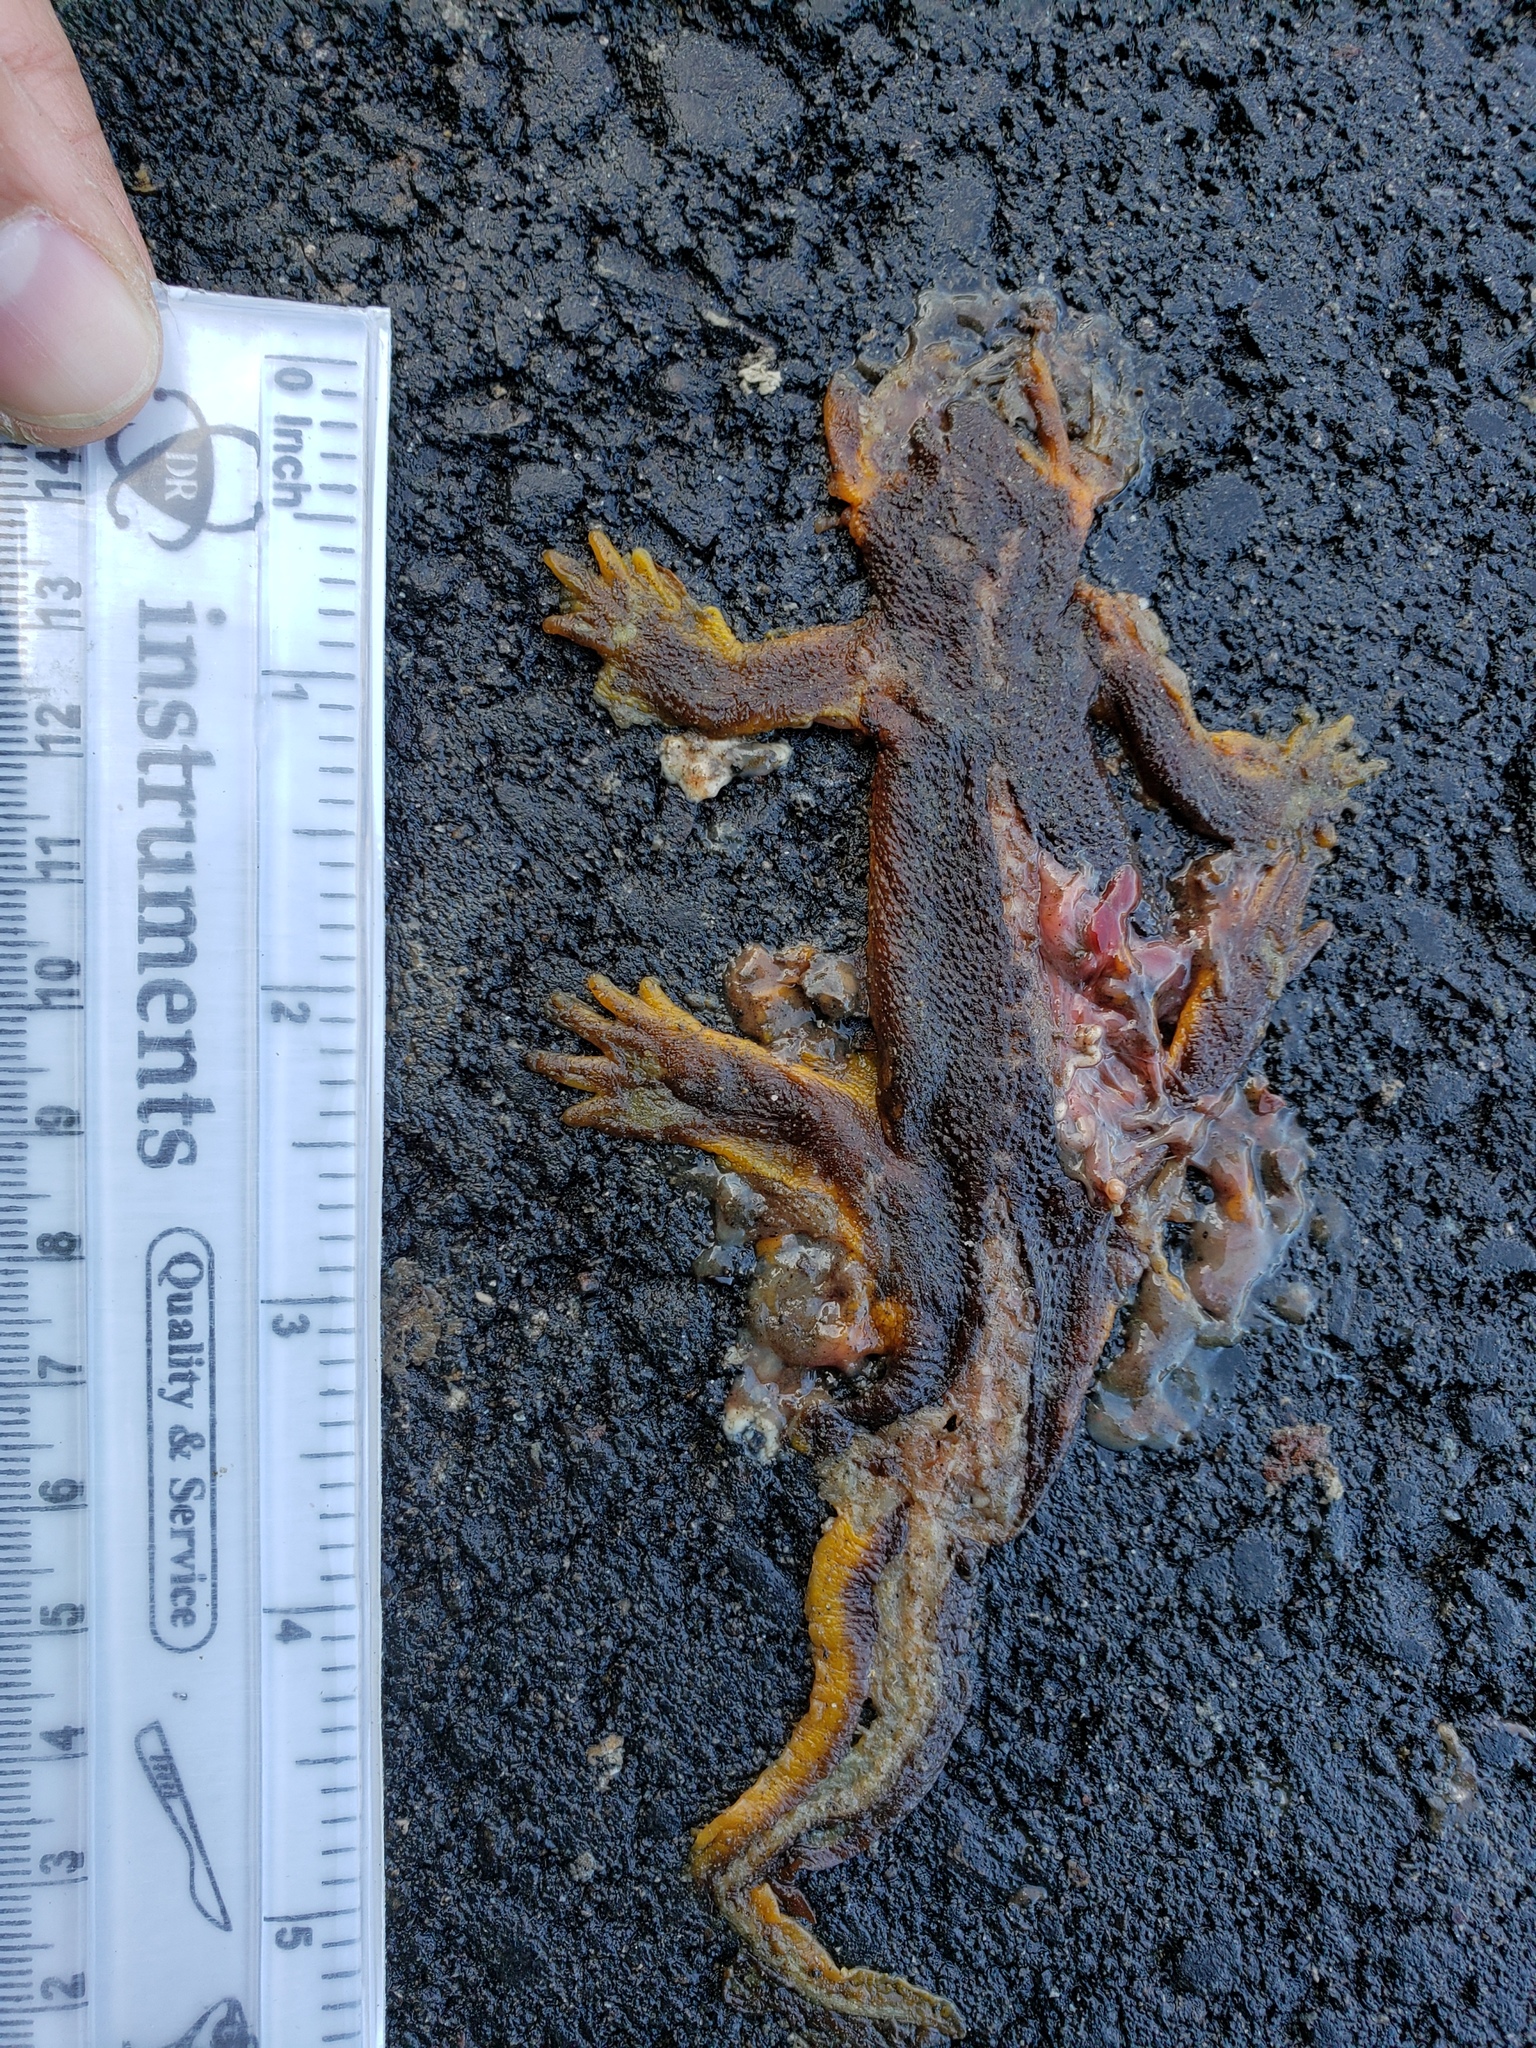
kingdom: Animalia
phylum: Chordata
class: Amphibia
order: Caudata
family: Salamandridae
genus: Taricha
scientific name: Taricha
